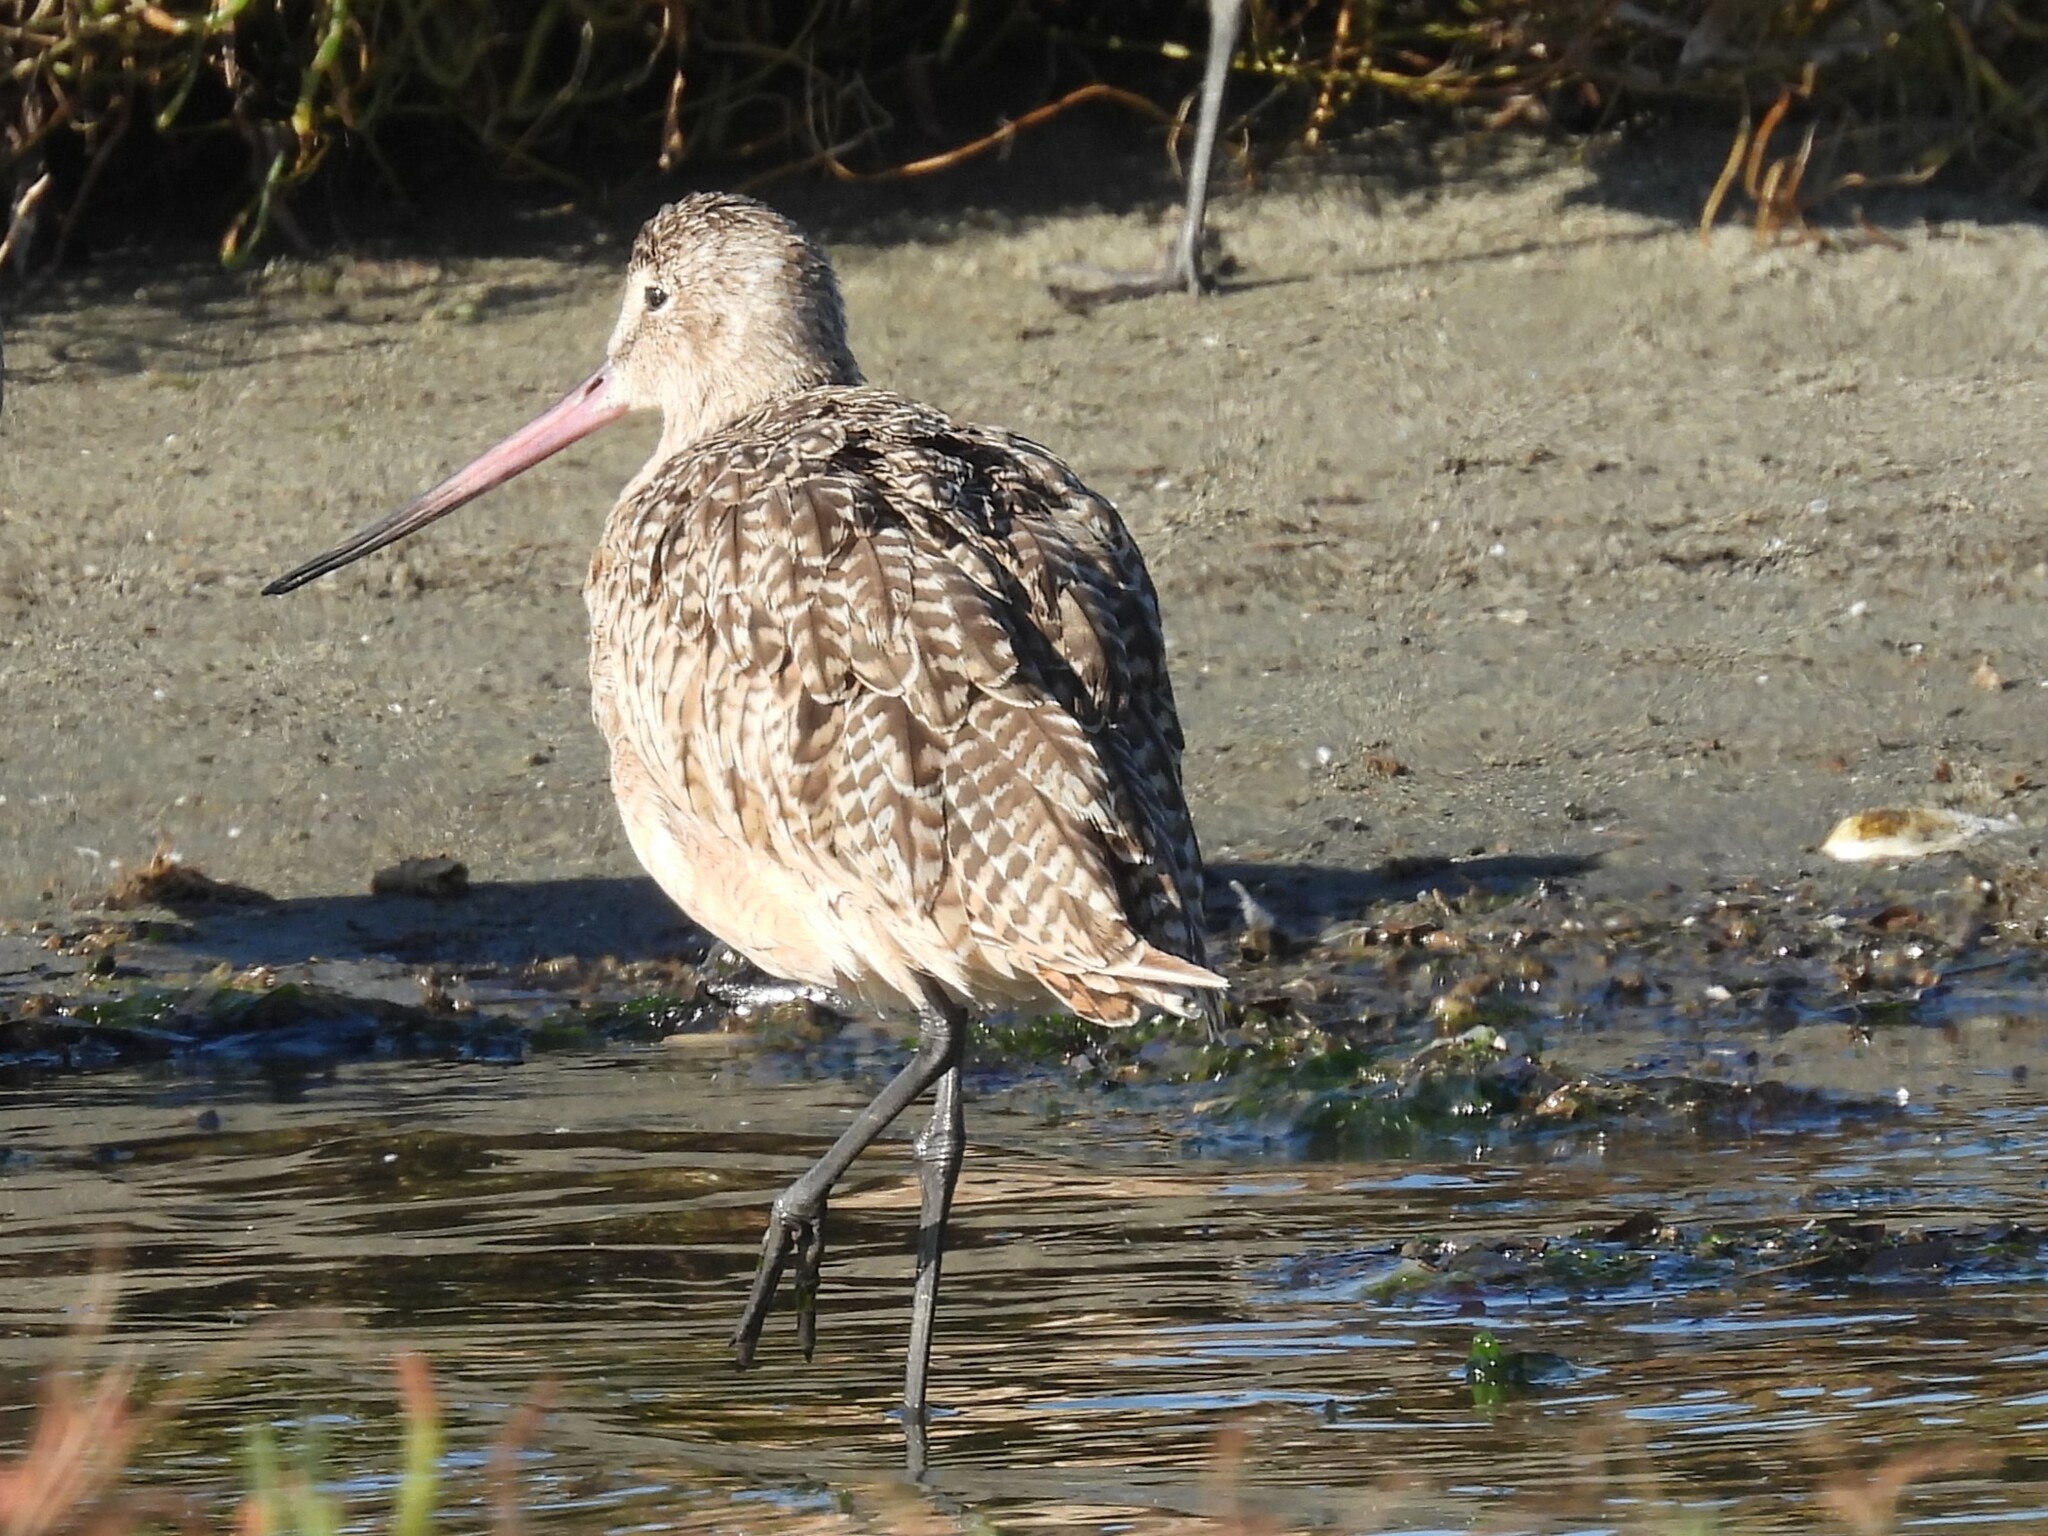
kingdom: Animalia
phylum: Chordata
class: Aves
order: Charadriiformes
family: Scolopacidae
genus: Limosa
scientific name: Limosa fedoa
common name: Marbled godwit
